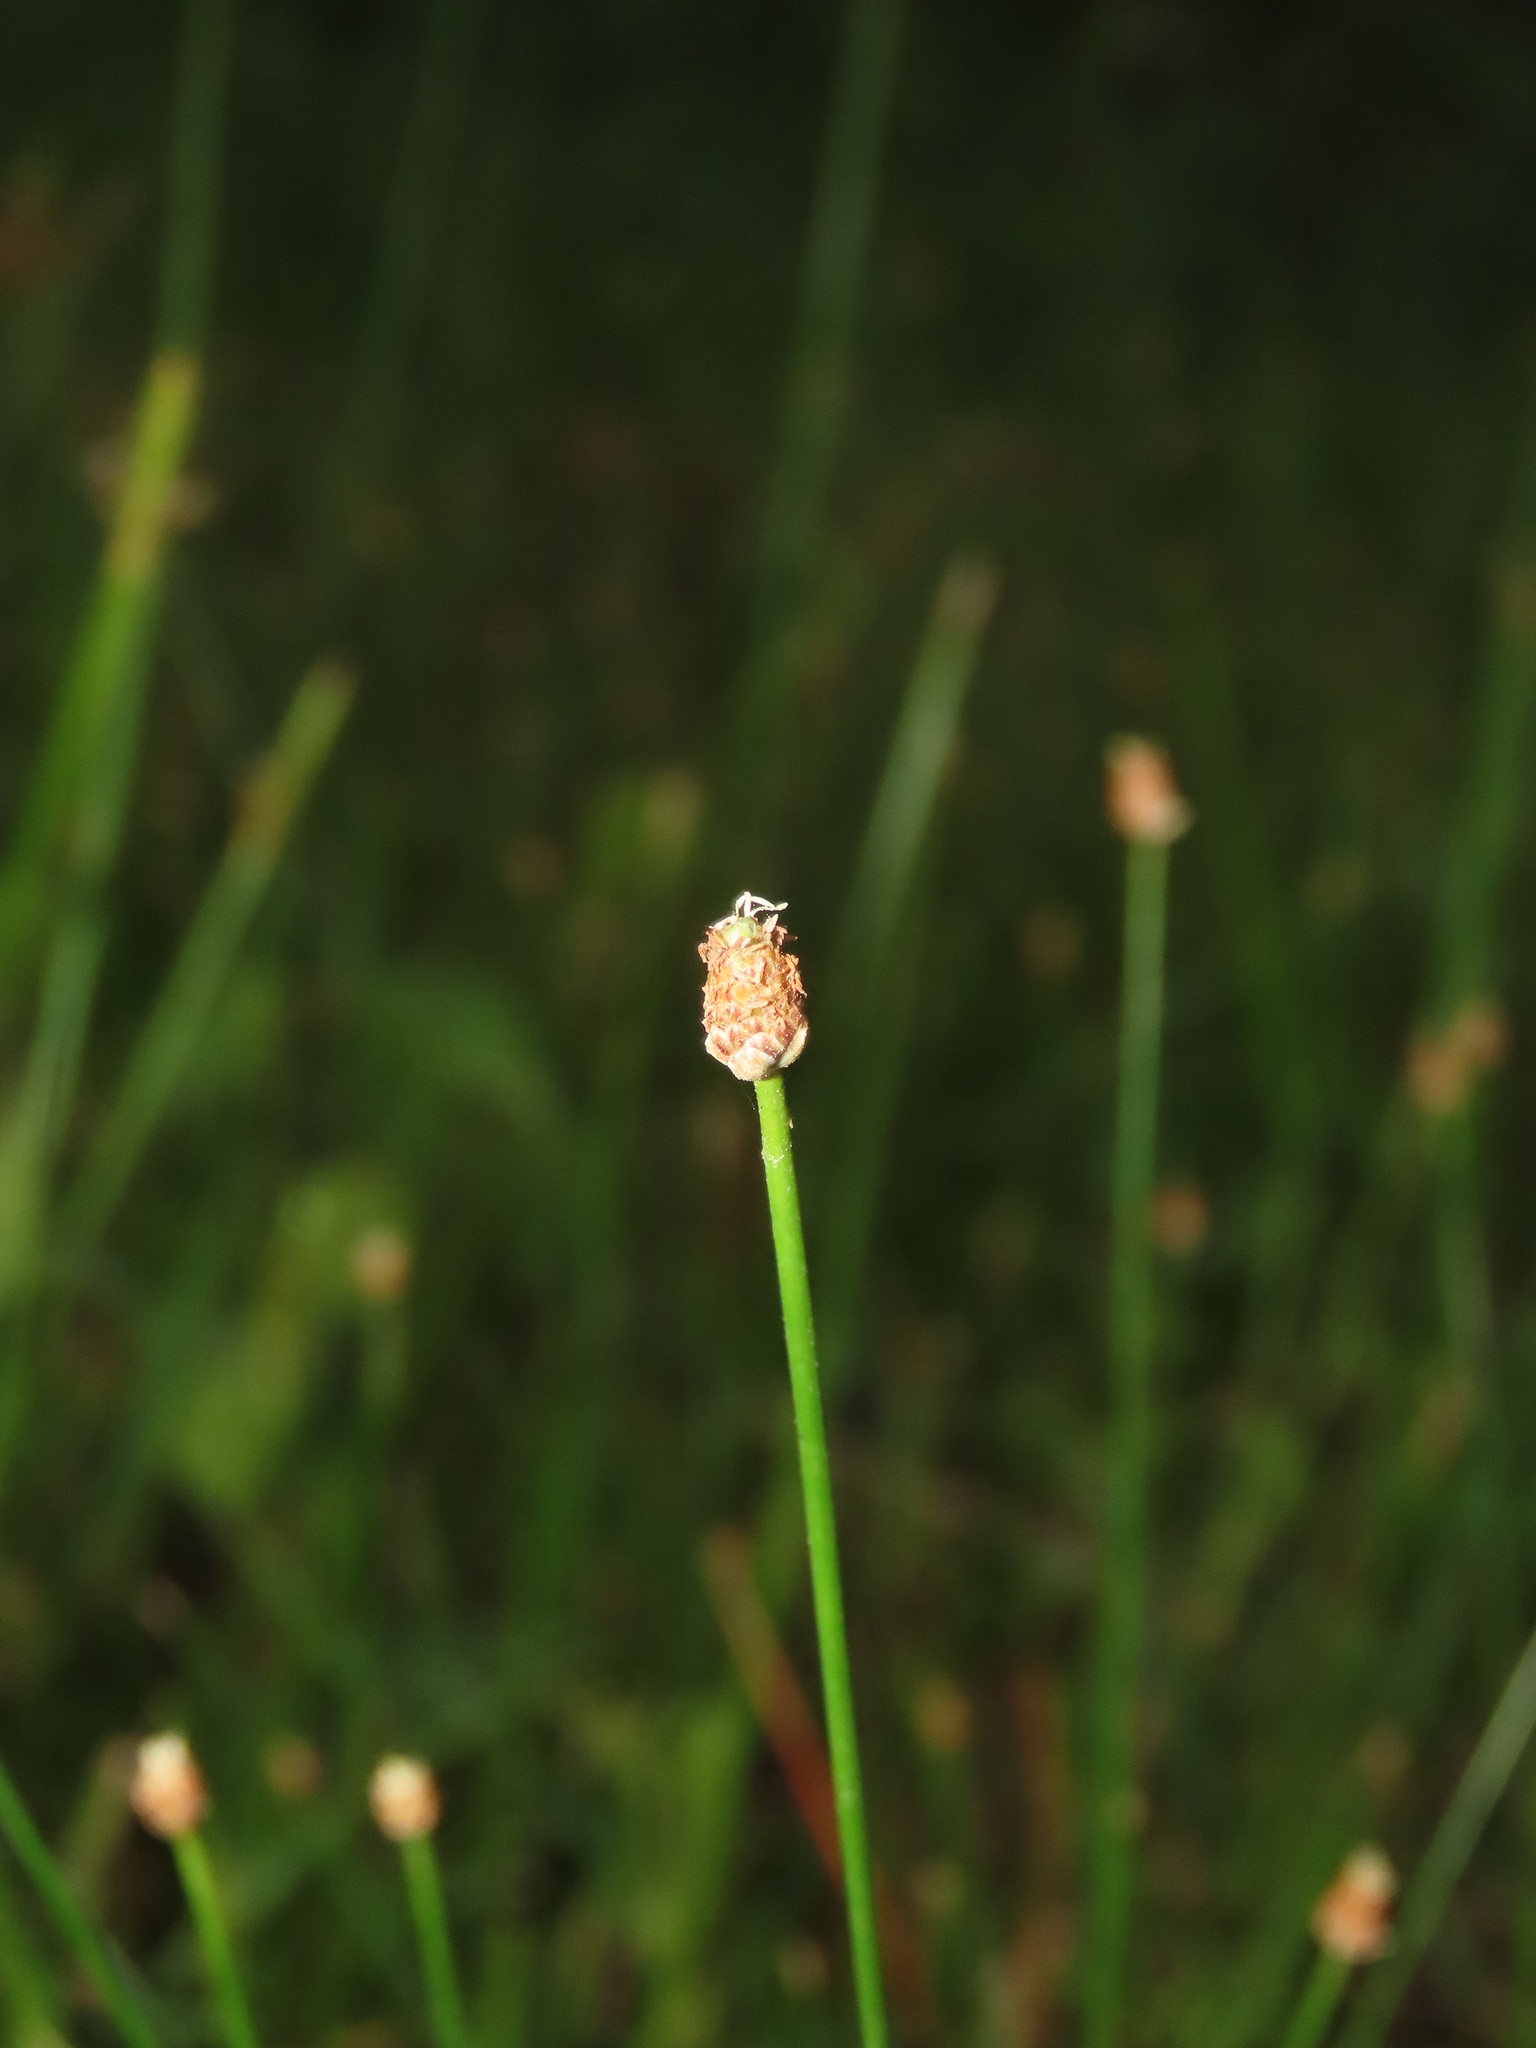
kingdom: Plantae
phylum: Tracheophyta
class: Liliopsida
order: Poales
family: Cyperaceae
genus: Eleocharis
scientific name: Eleocharis geniculata
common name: Canada spikesedge
